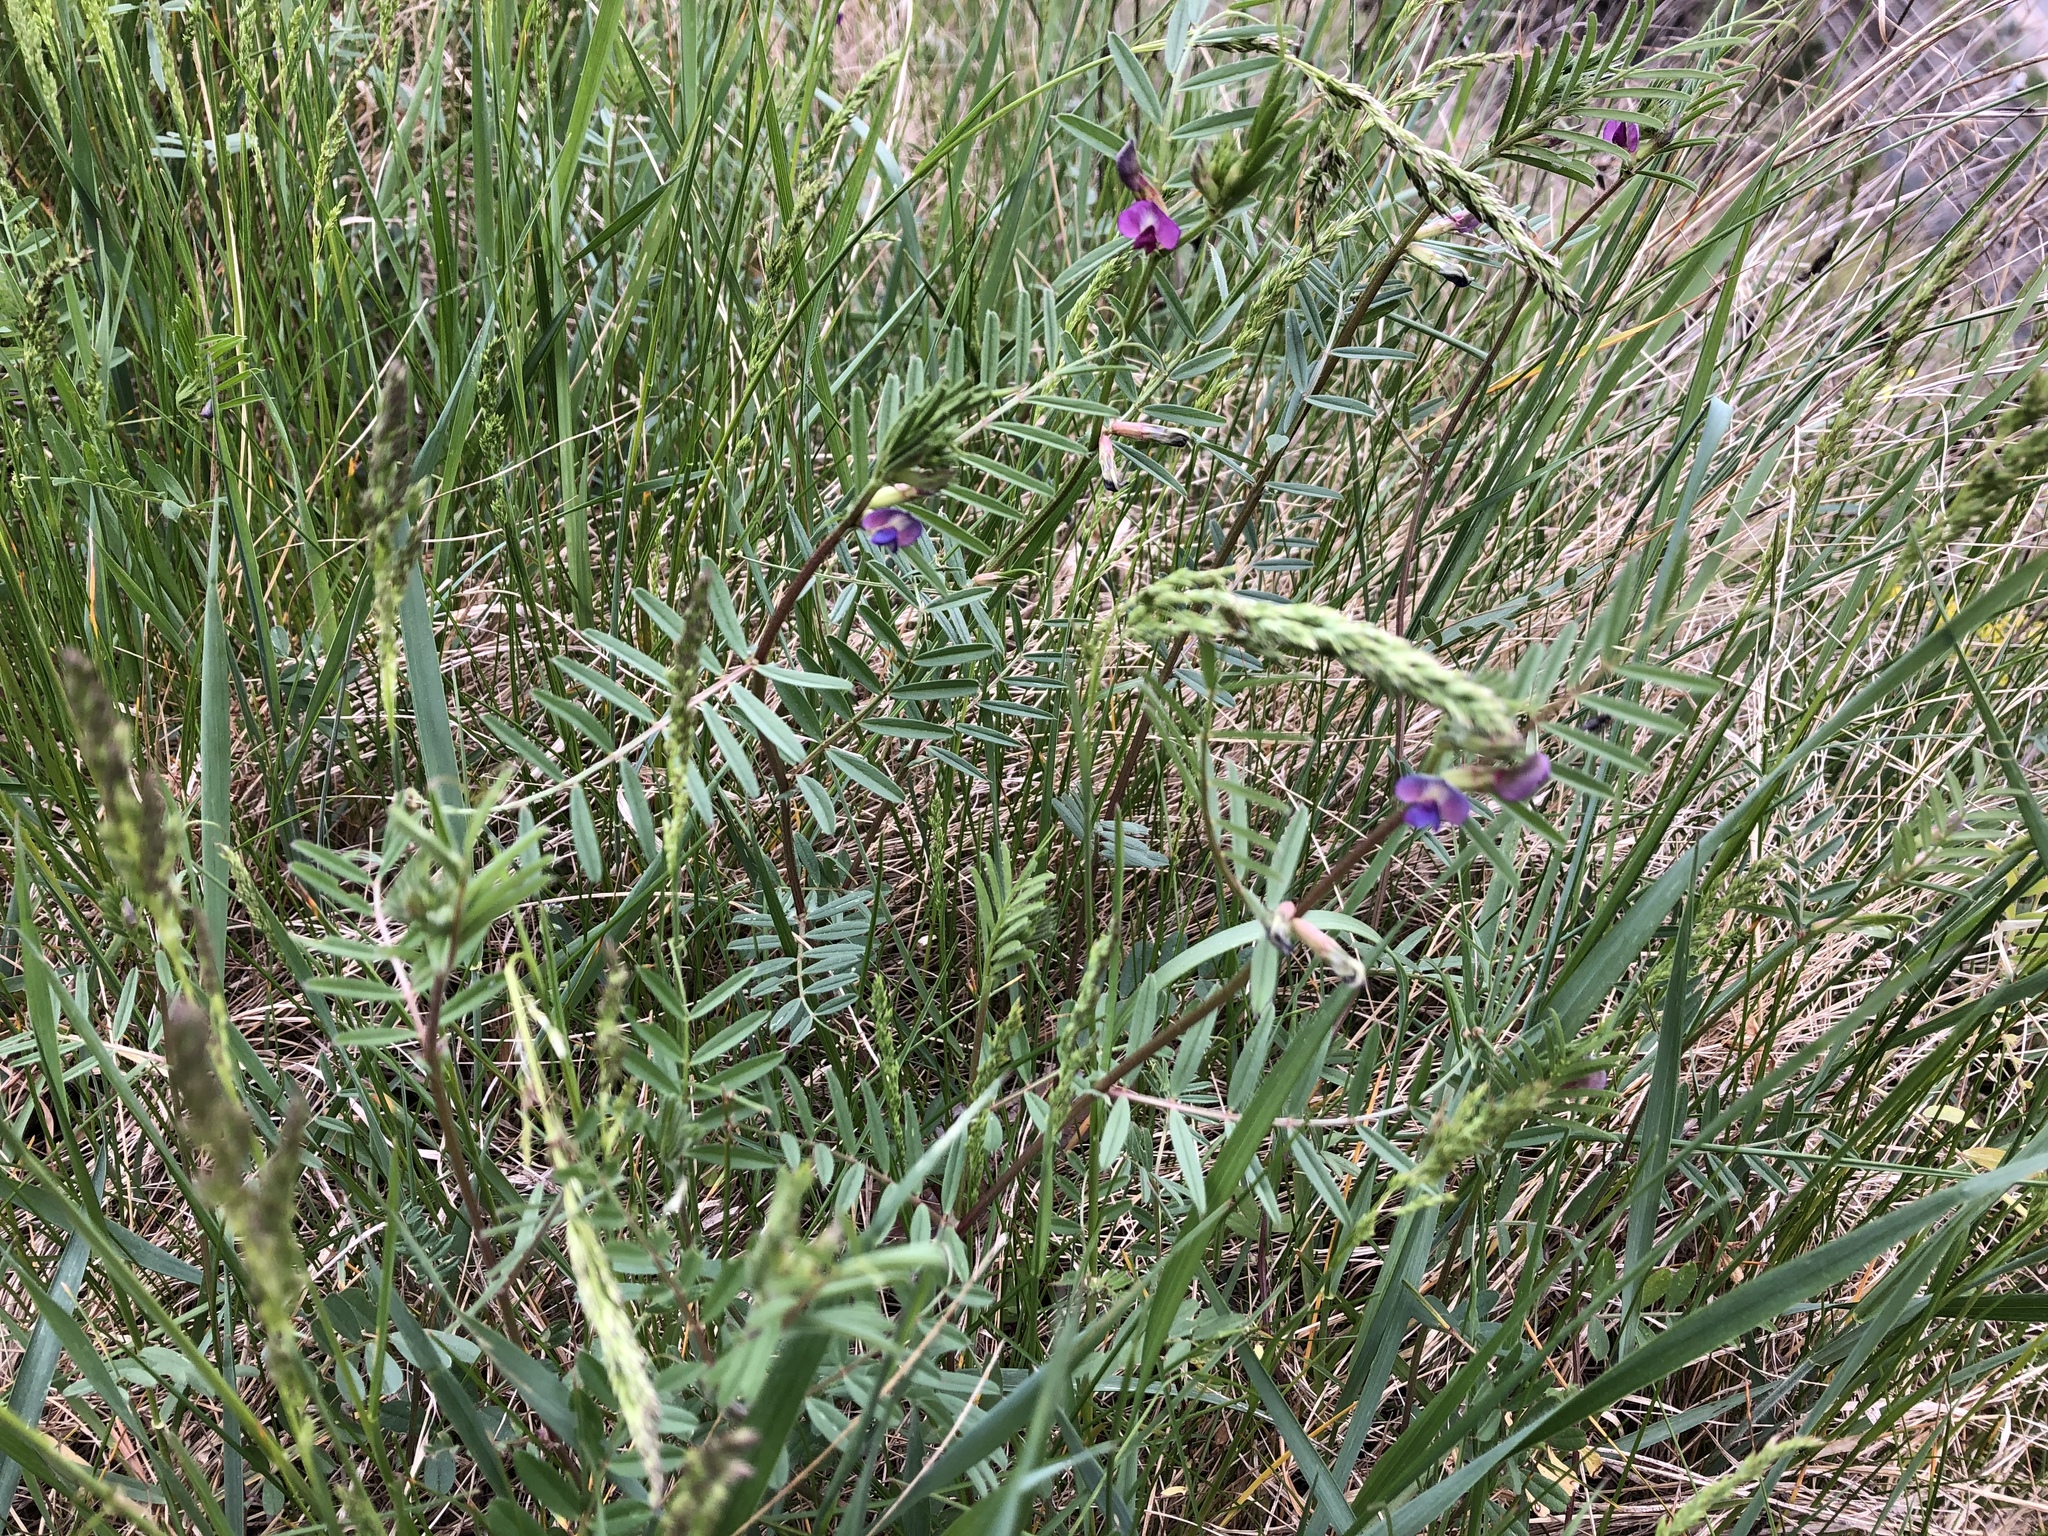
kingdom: Plantae
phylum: Tracheophyta
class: Magnoliopsida
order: Fabales
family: Fabaceae
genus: Vicia
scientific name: Vicia sativa
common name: Garden vetch
